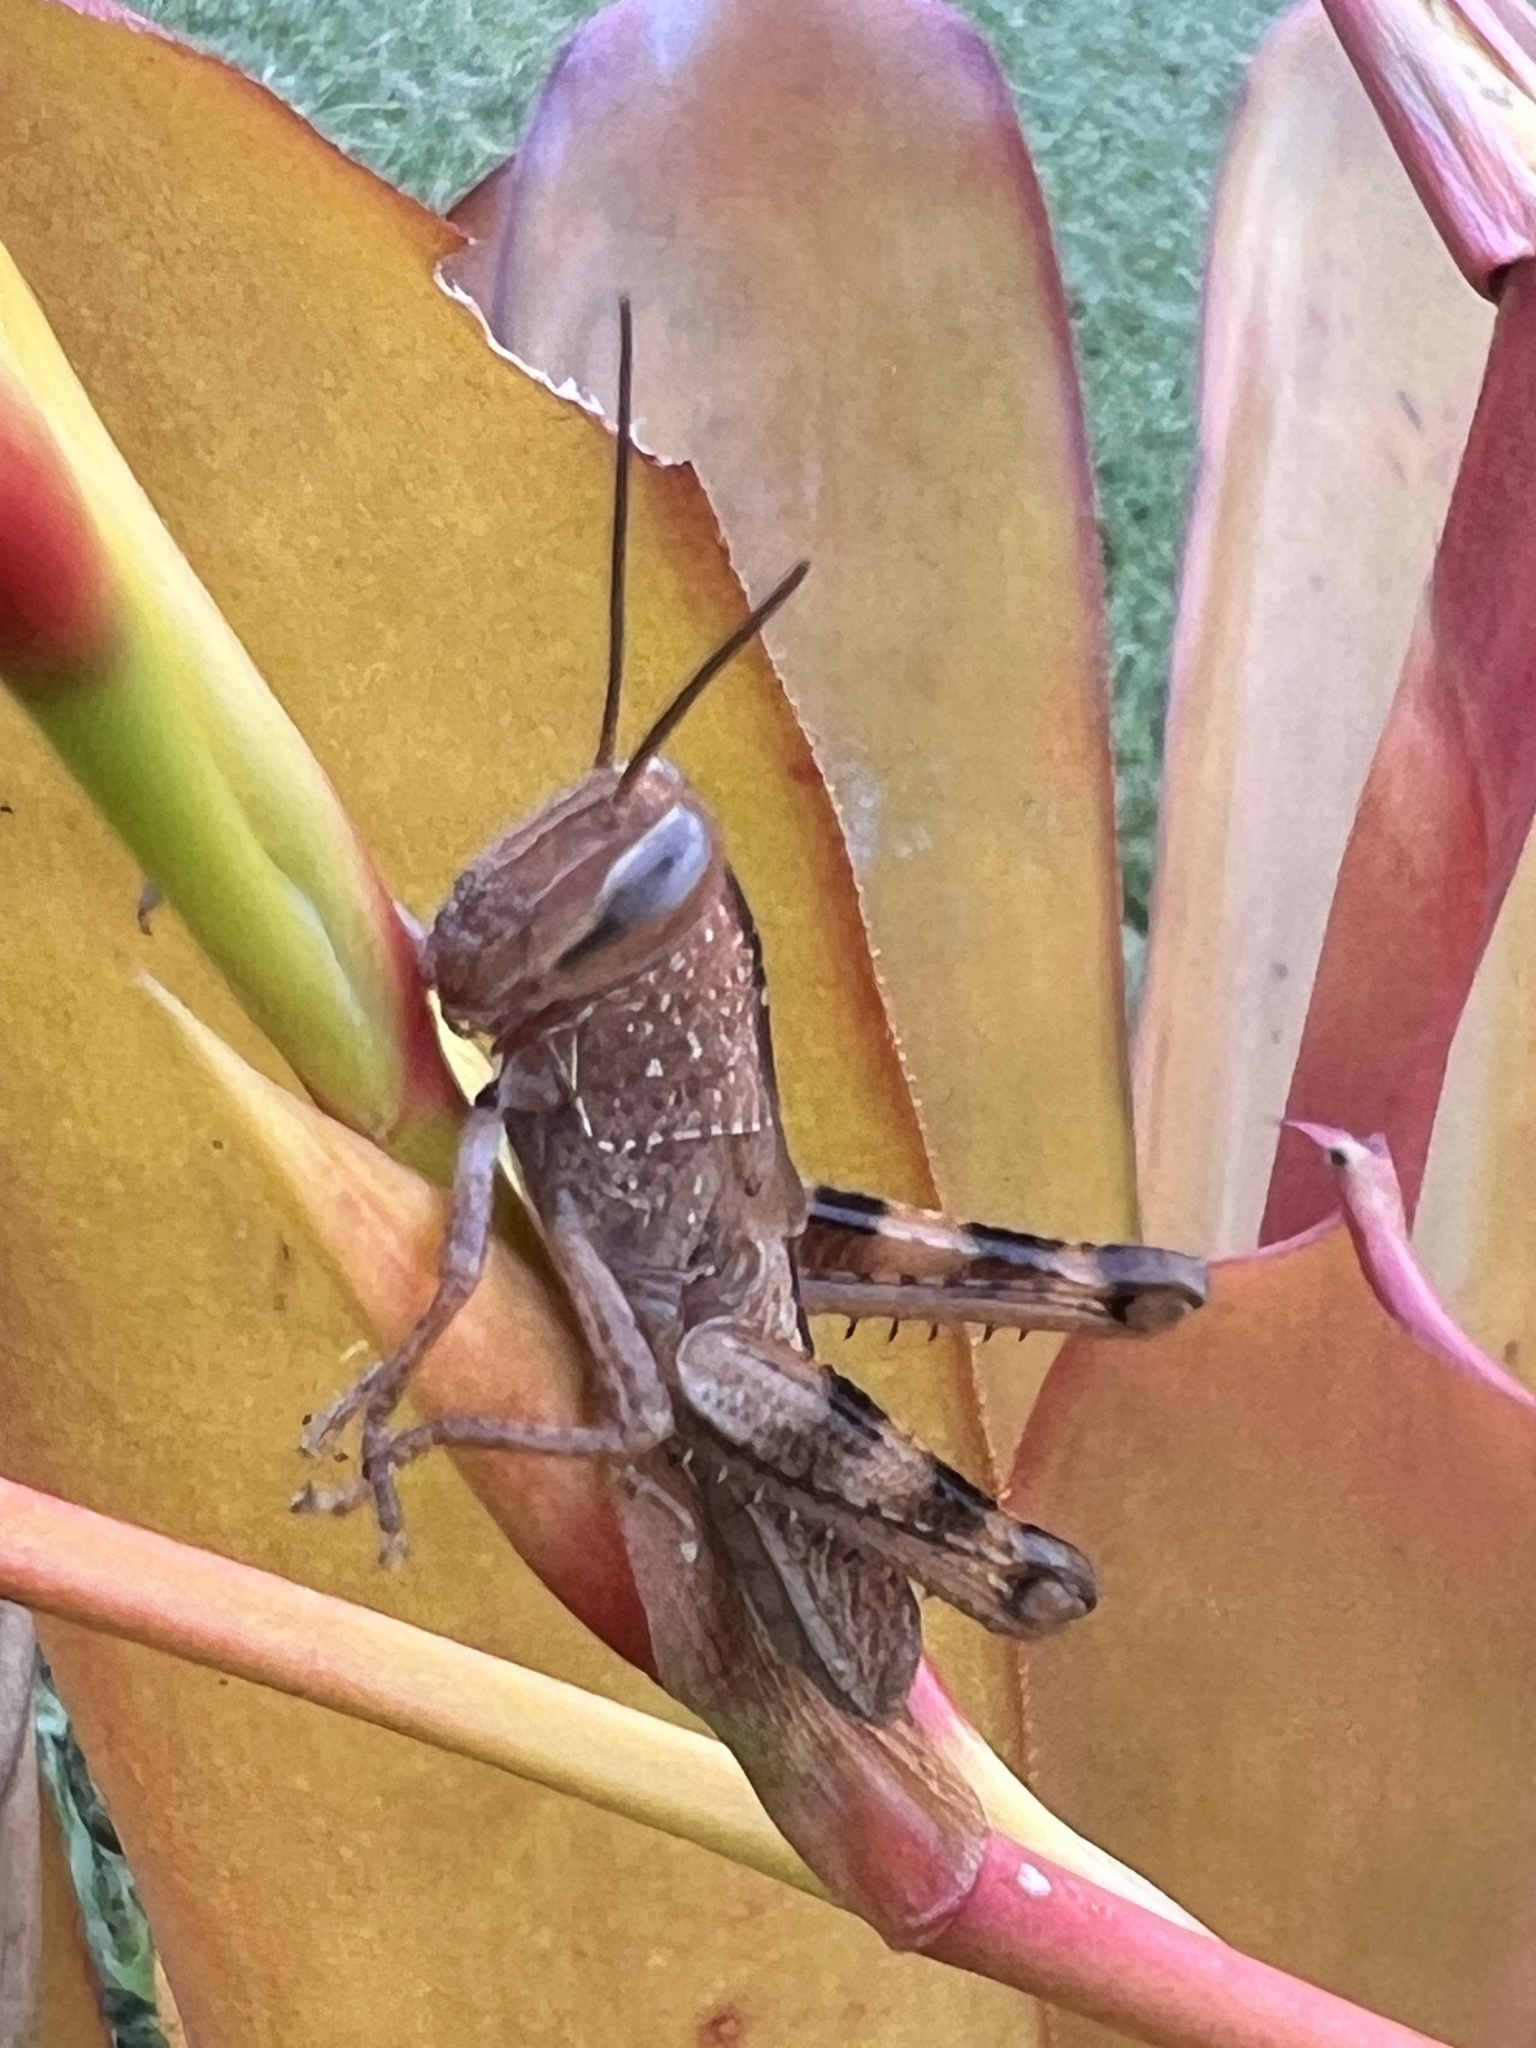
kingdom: Animalia
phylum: Arthropoda
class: Insecta
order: Orthoptera
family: Acrididae
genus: Valanga
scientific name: Valanga irregularis
